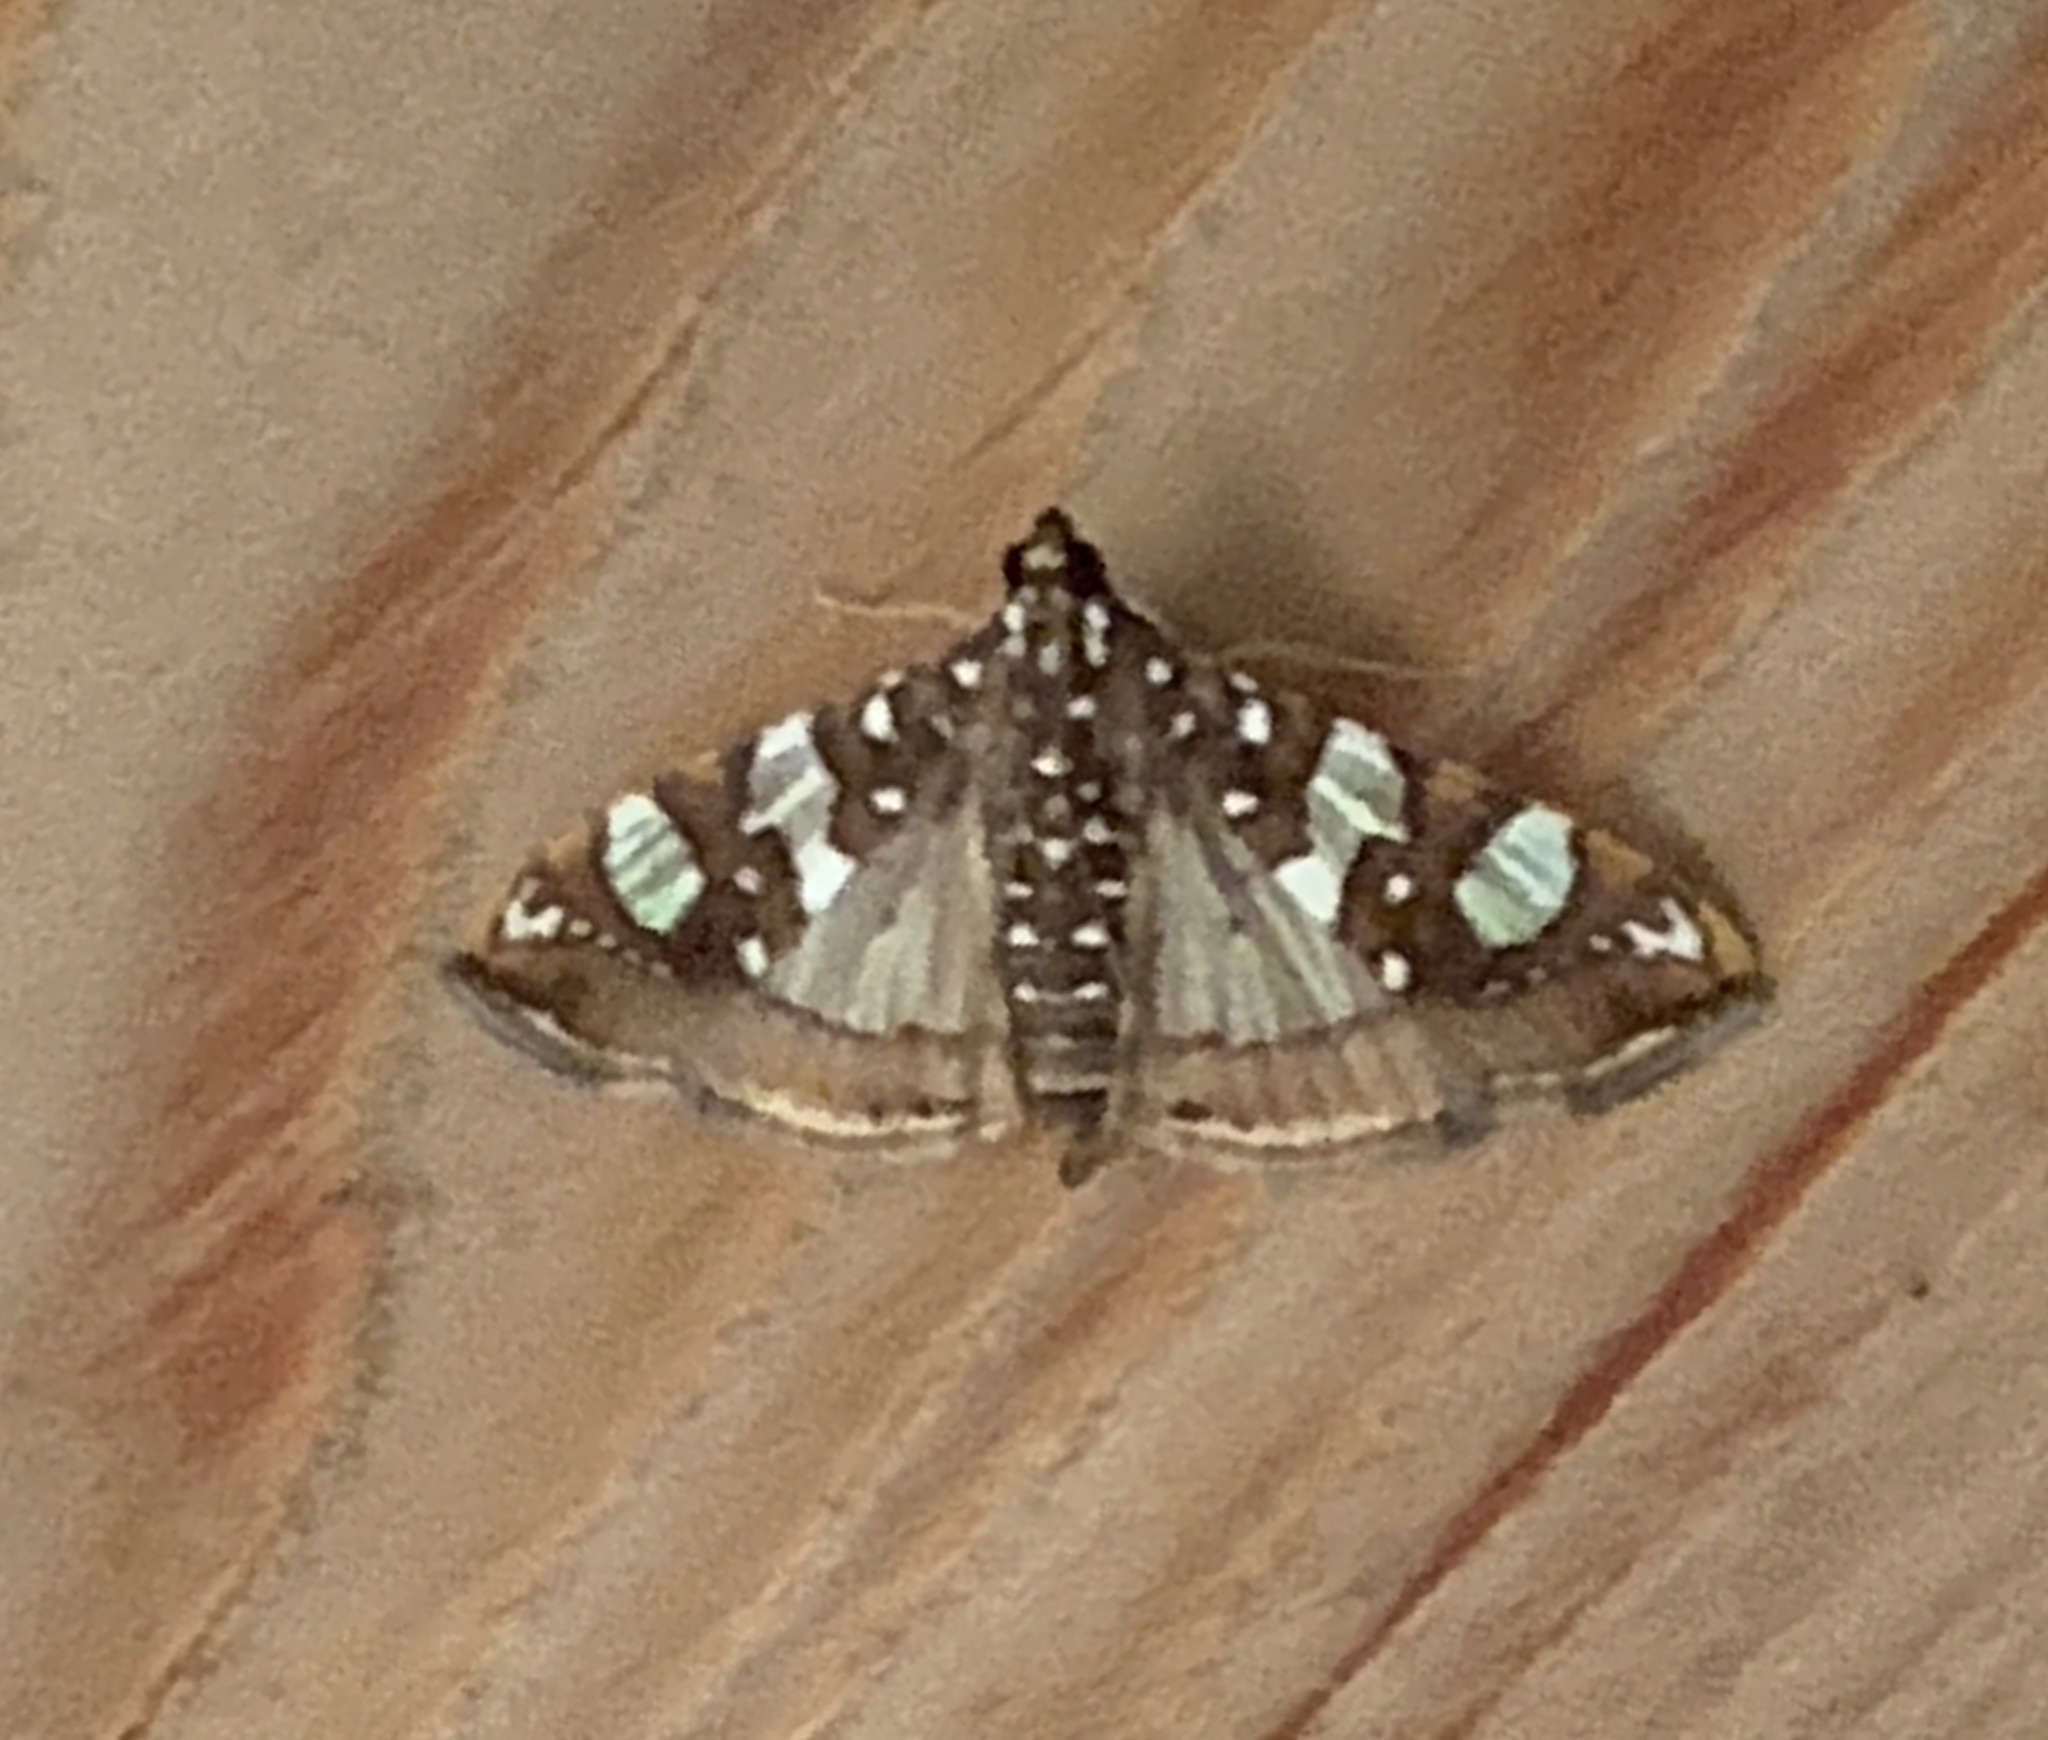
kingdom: Animalia
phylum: Arthropoda
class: Insecta
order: Lepidoptera
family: Crambidae
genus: Glyphodes
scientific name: Glyphodes sibillalis
